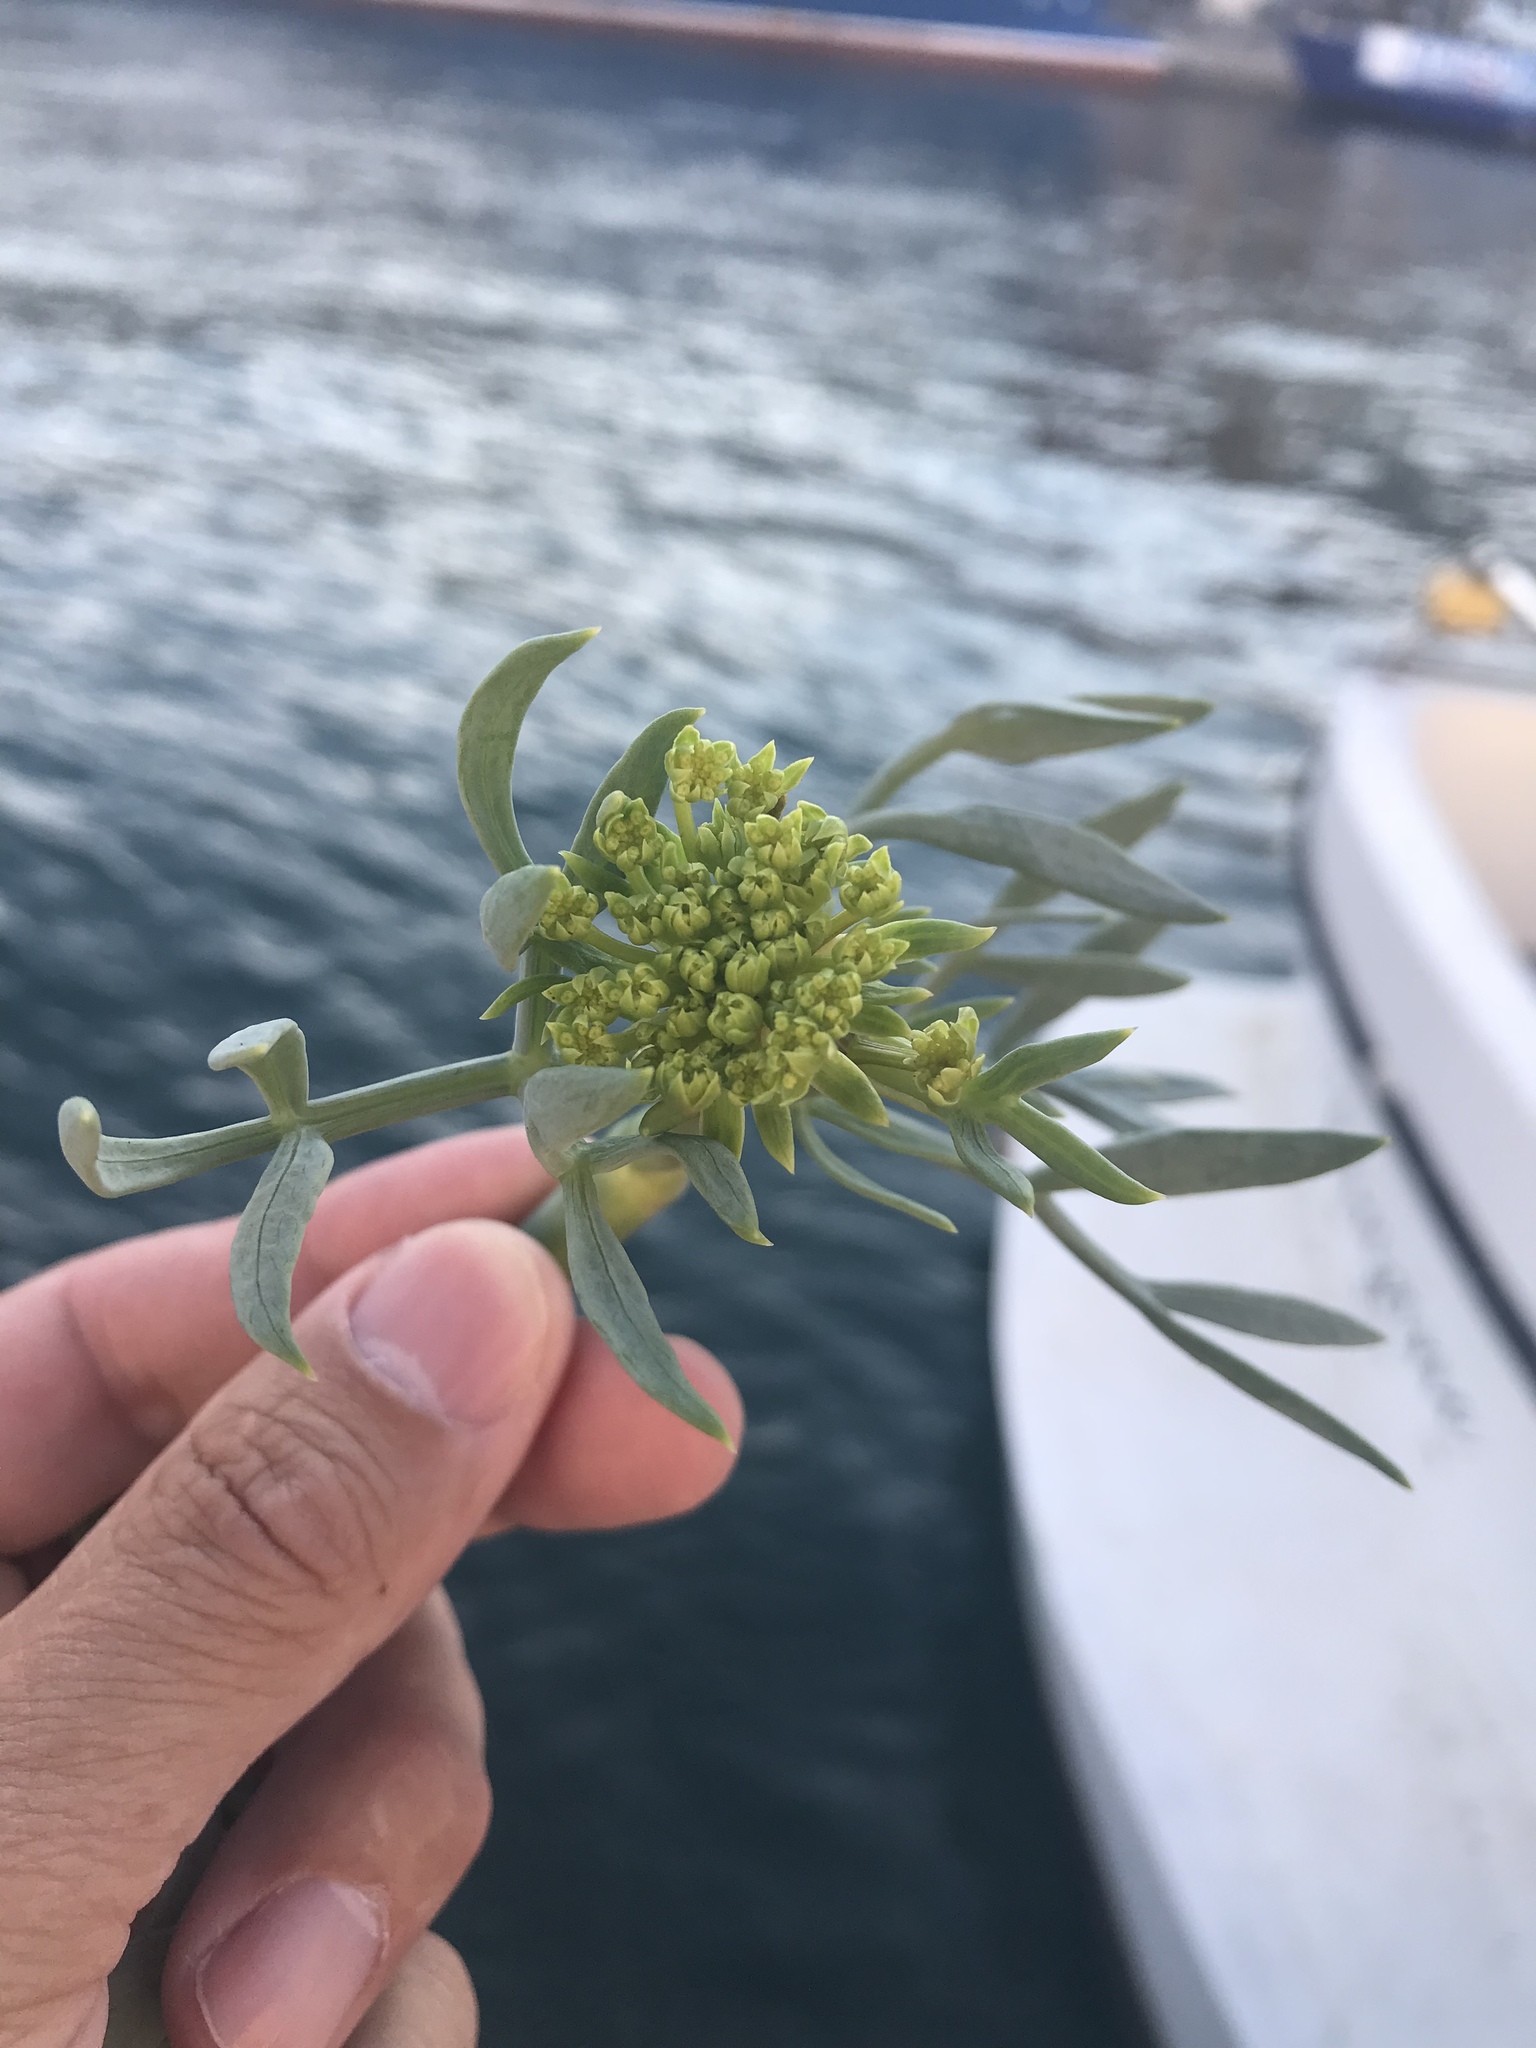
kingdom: Plantae
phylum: Tracheophyta
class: Magnoliopsida
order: Apiales
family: Apiaceae
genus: Crithmum
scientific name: Crithmum maritimum
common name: Rock samphire
